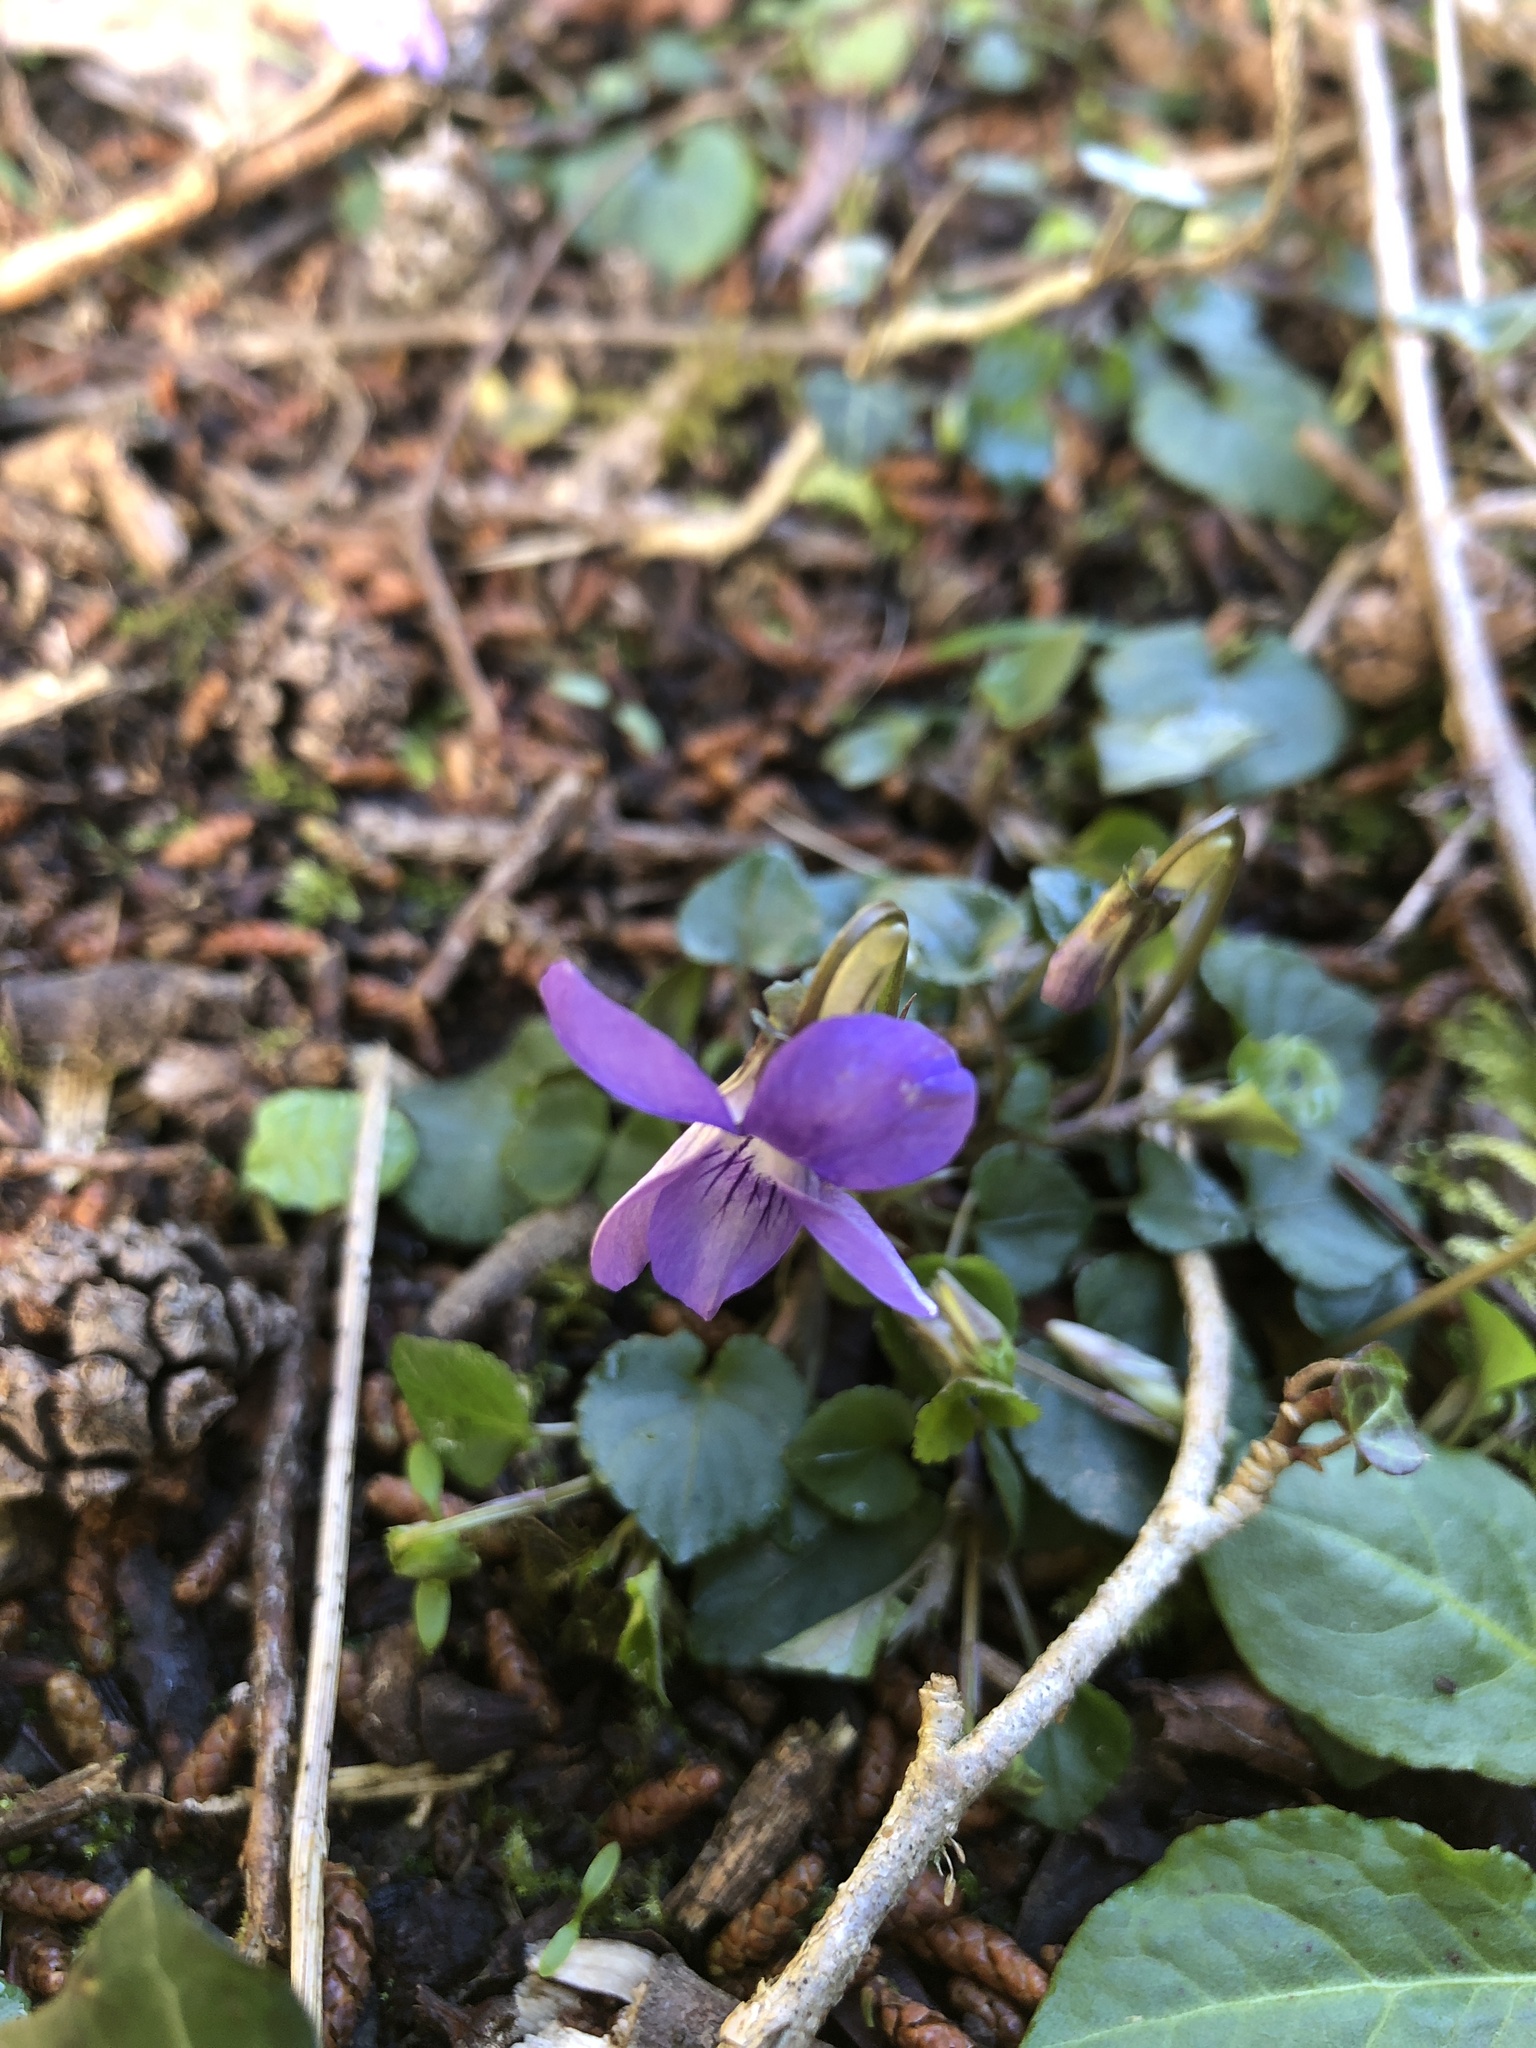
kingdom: Plantae
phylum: Tracheophyta
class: Magnoliopsida
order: Malpighiales
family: Violaceae
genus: Viola
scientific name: Viola riviniana
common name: Common dog-violet
